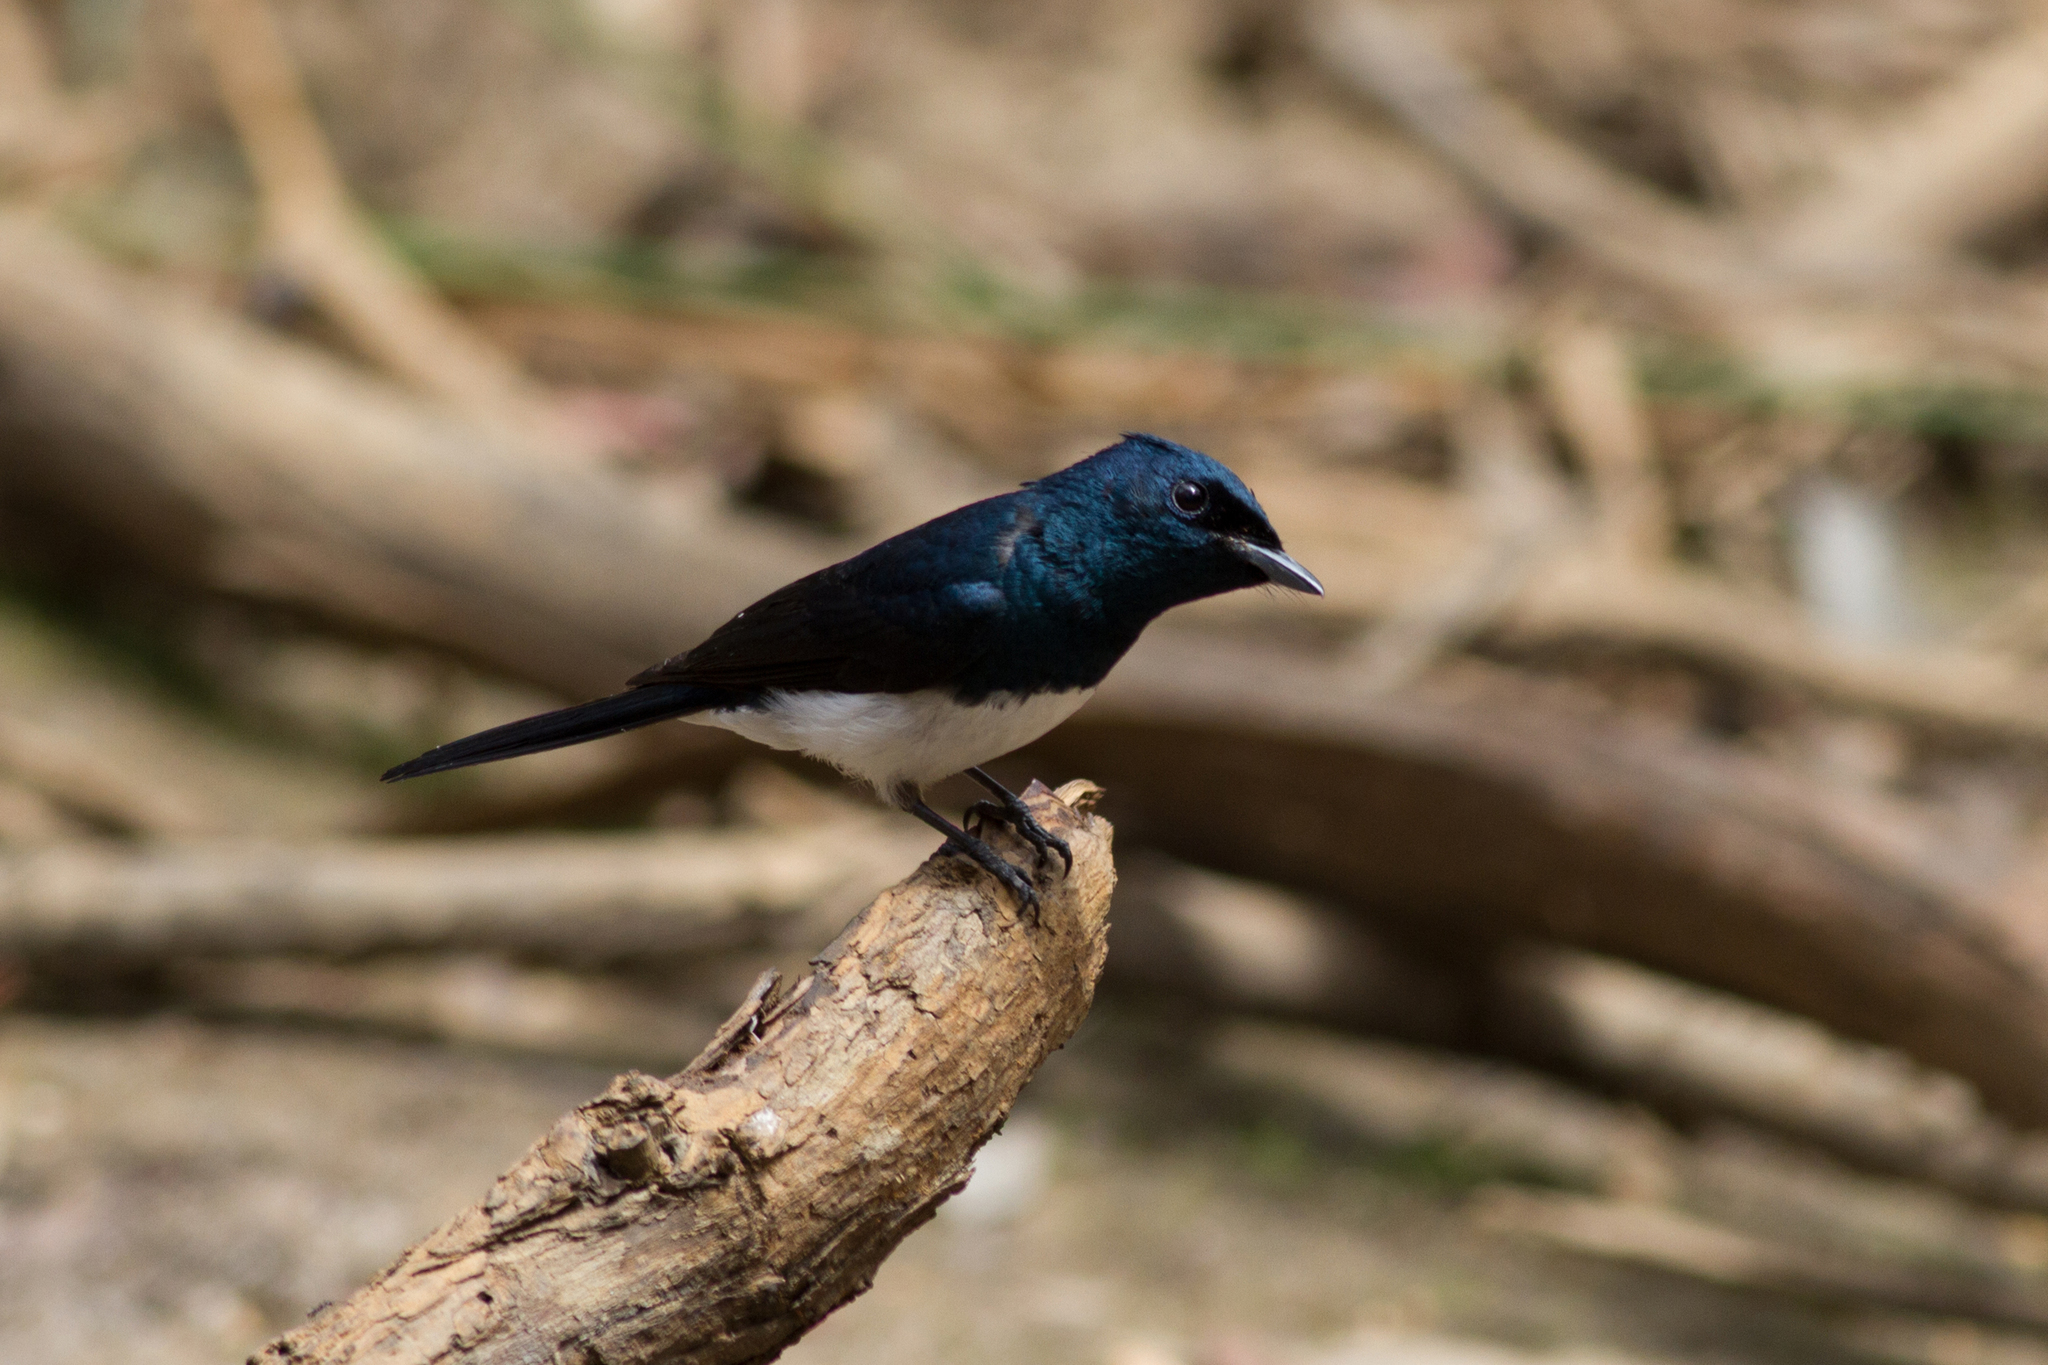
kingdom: Animalia
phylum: Chordata
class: Aves
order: Passeriformes
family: Monarchidae
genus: Myiagra
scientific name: Myiagra cyanoleuca
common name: Satin flycatcher
